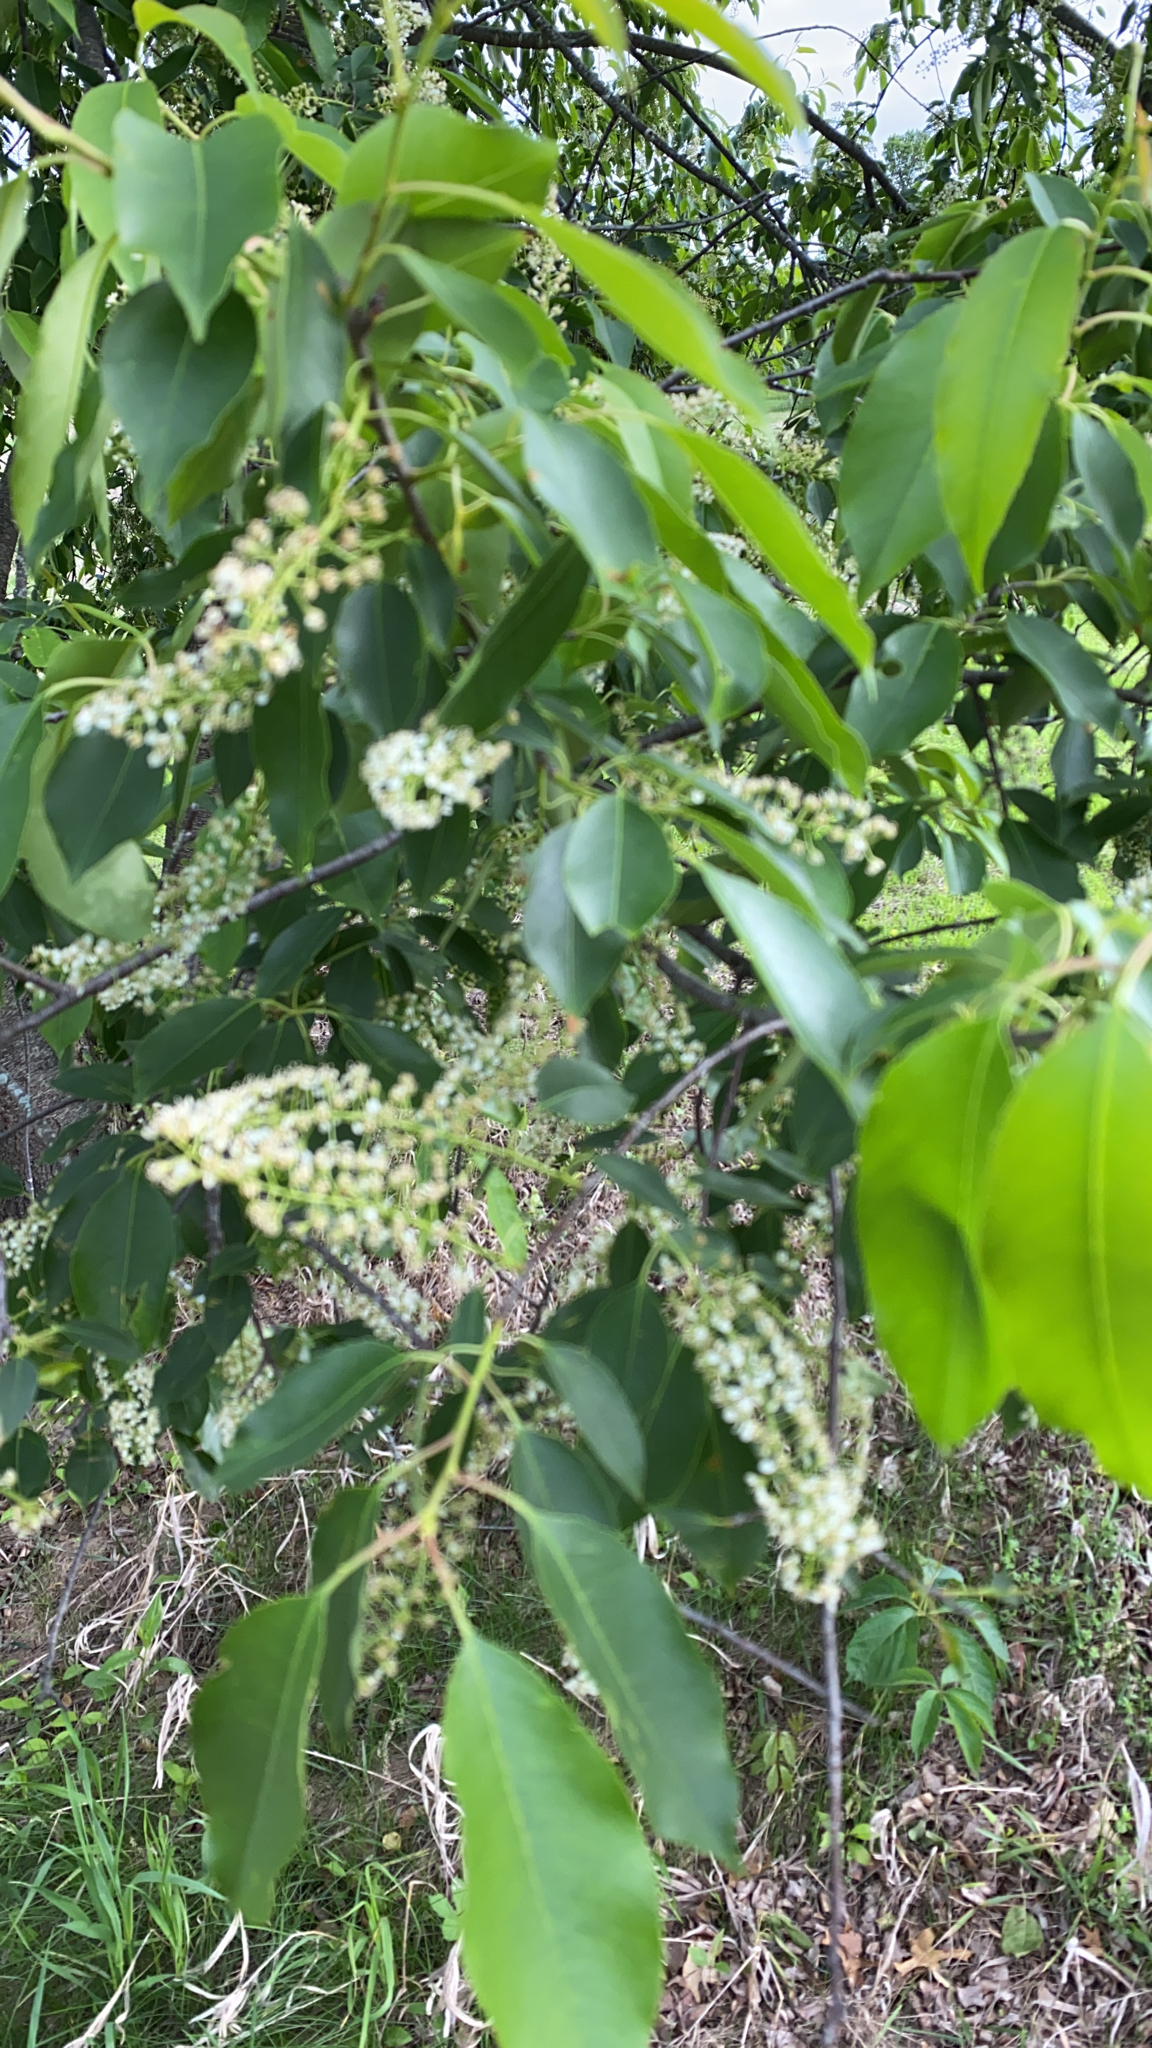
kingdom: Plantae
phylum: Tracheophyta
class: Magnoliopsida
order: Rosales
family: Rosaceae
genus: Prunus
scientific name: Prunus serotina
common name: Black cherry
